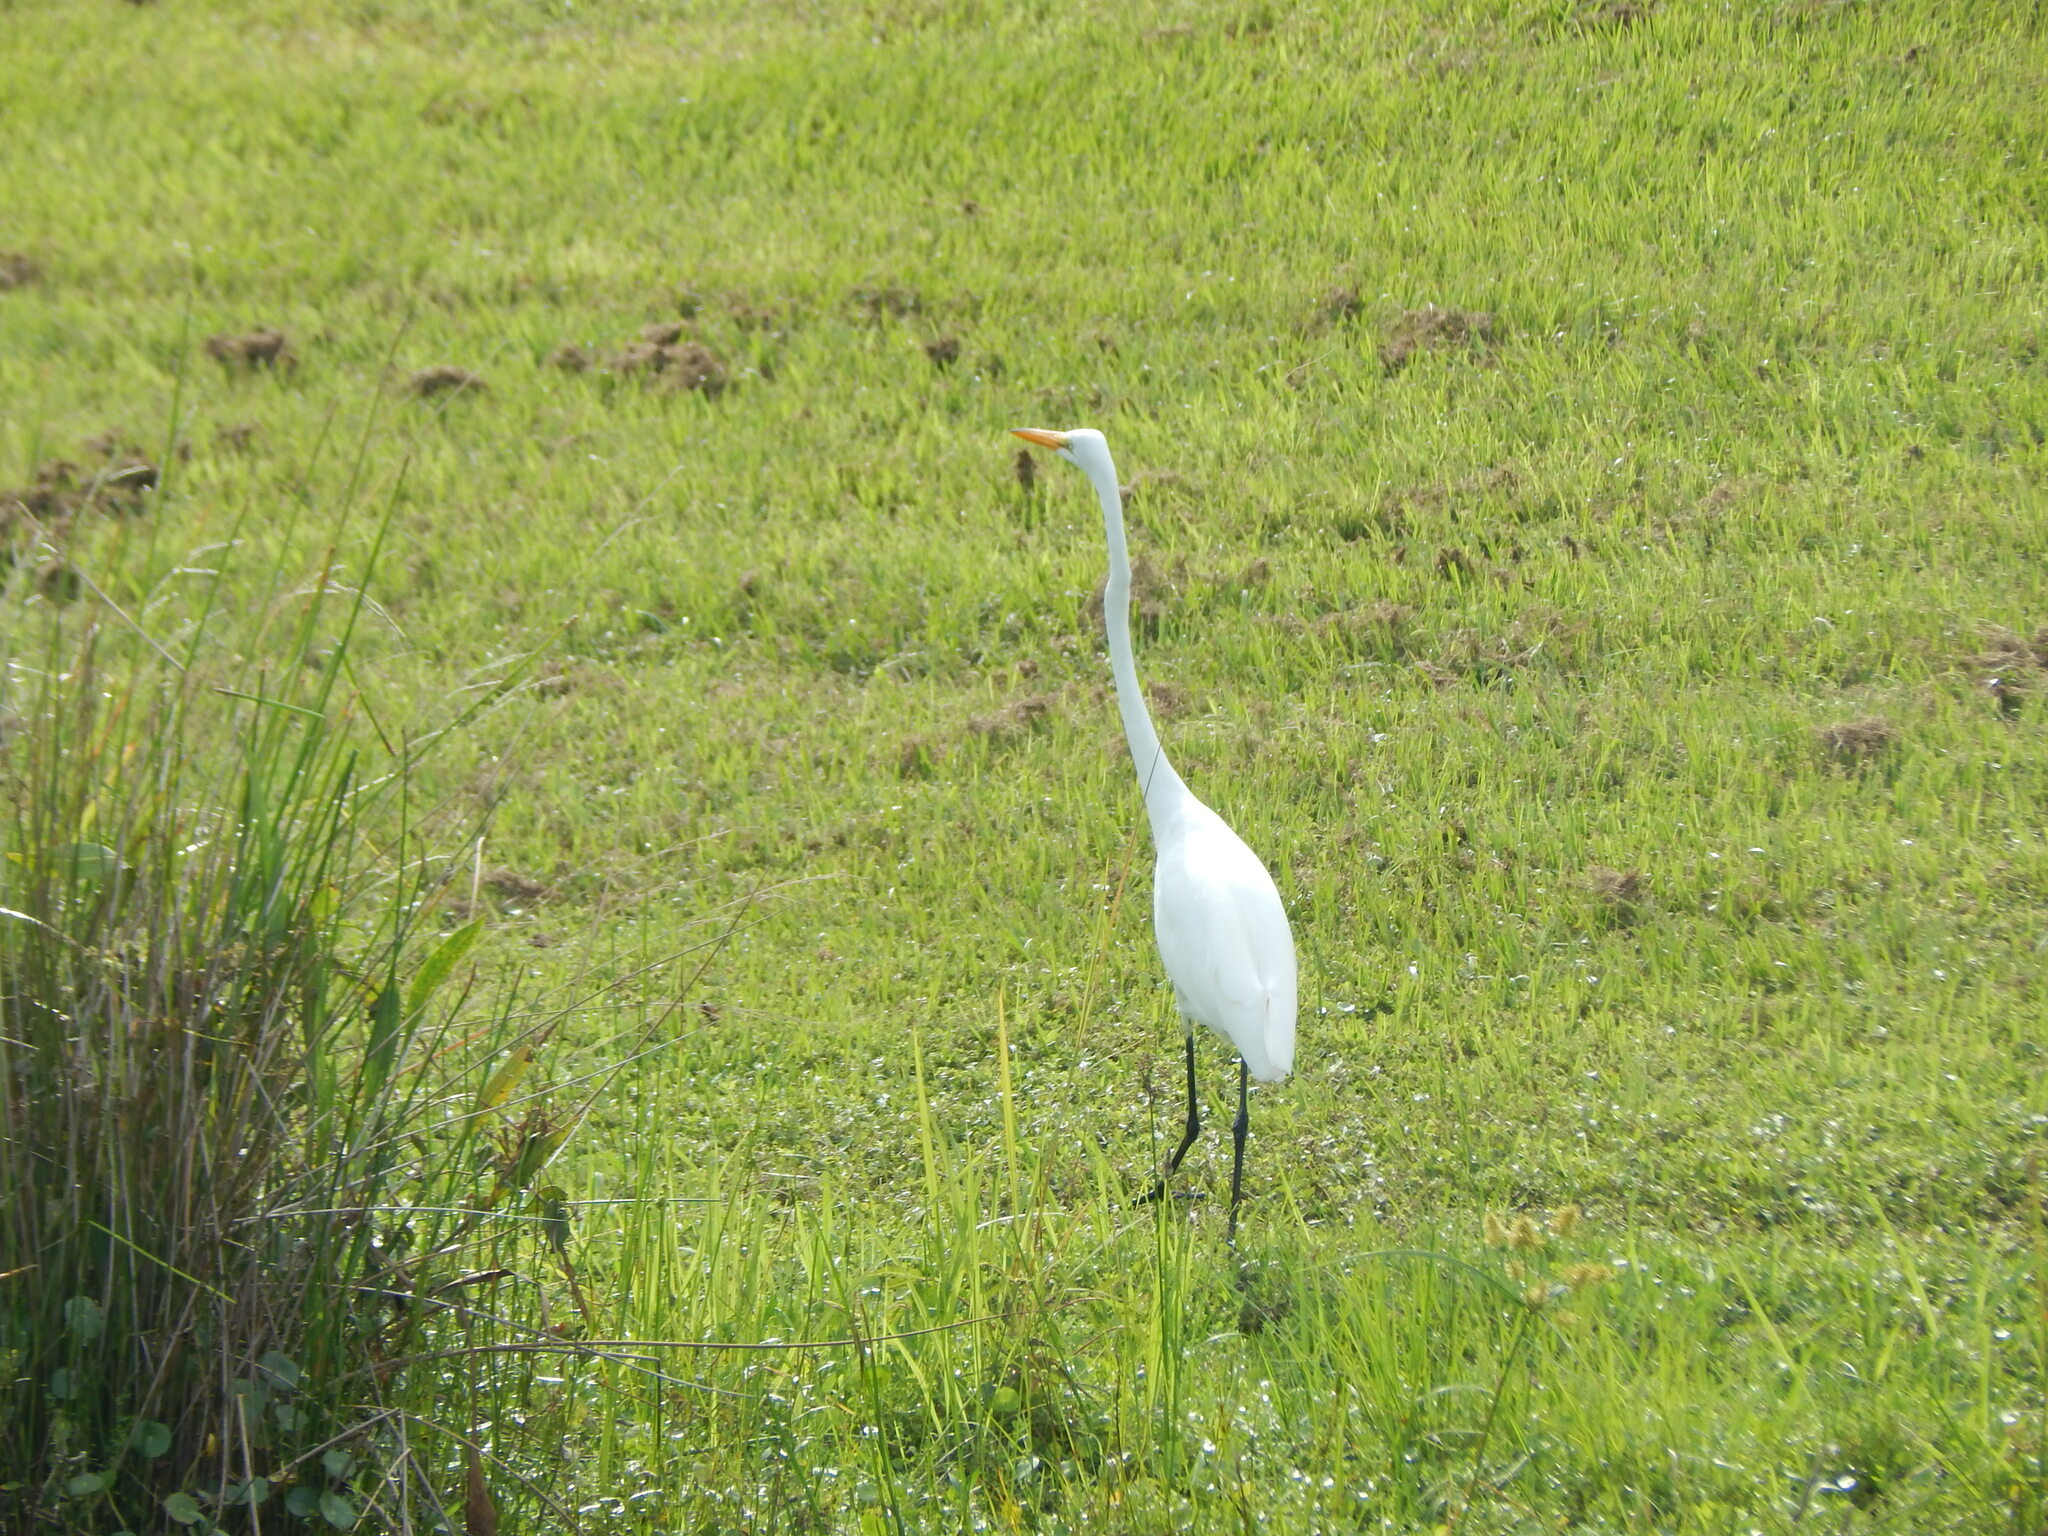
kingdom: Animalia
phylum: Chordata
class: Aves
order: Pelecaniformes
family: Ardeidae
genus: Ardea
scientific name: Ardea alba
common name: Great egret
